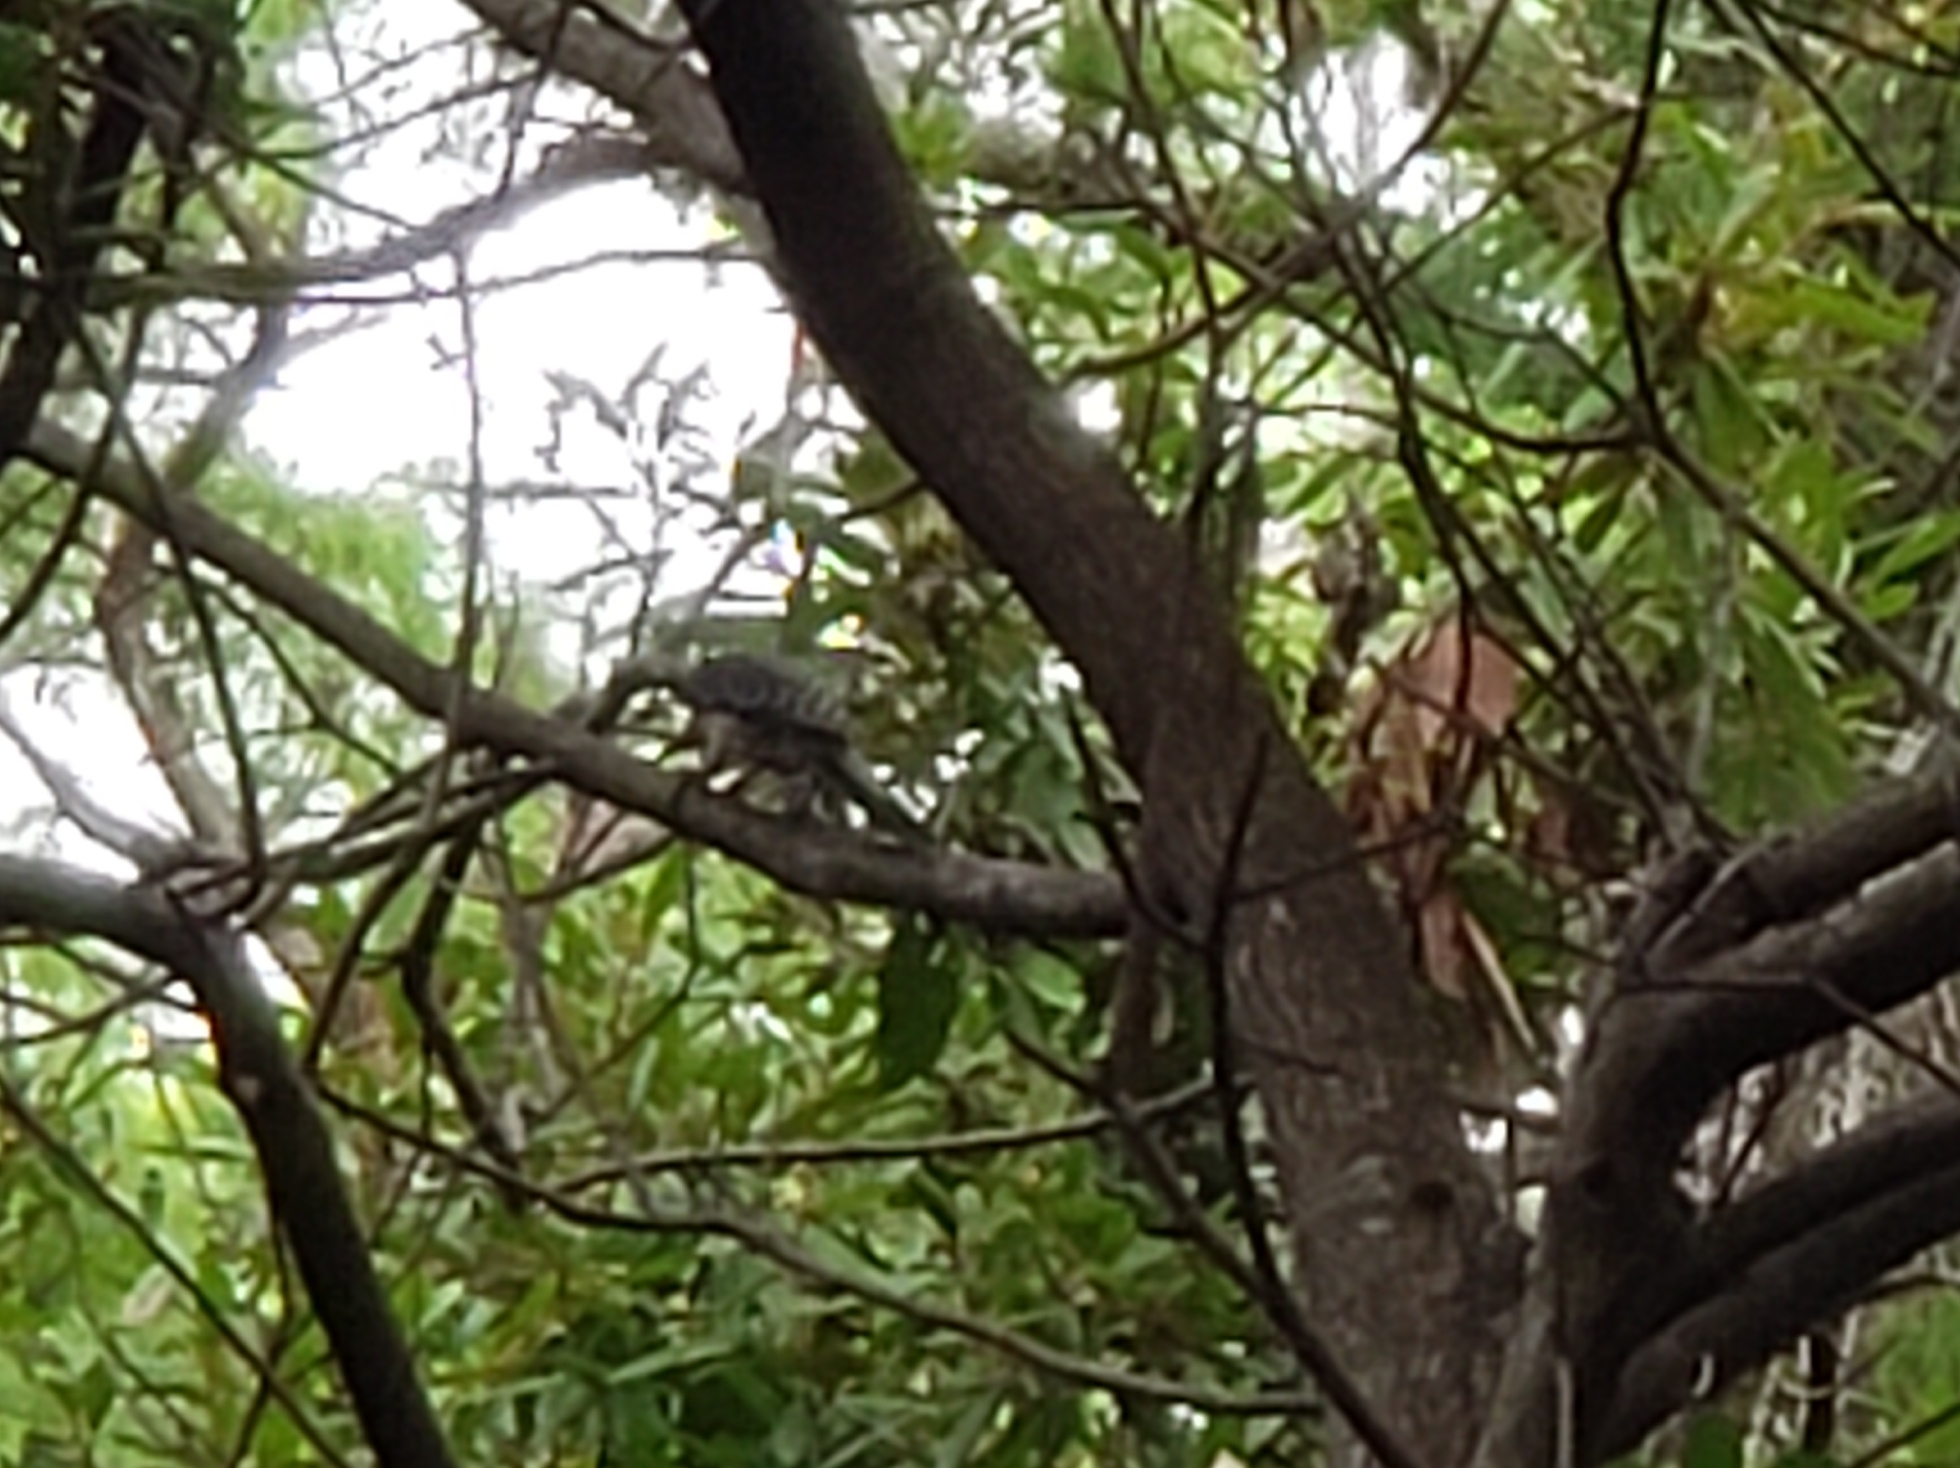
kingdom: Animalia
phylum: Chordata
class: Aves
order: Piciformes
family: Picidae
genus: Melanerpes
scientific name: Melanerpes carolinus
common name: Red-bellied woodpecker
